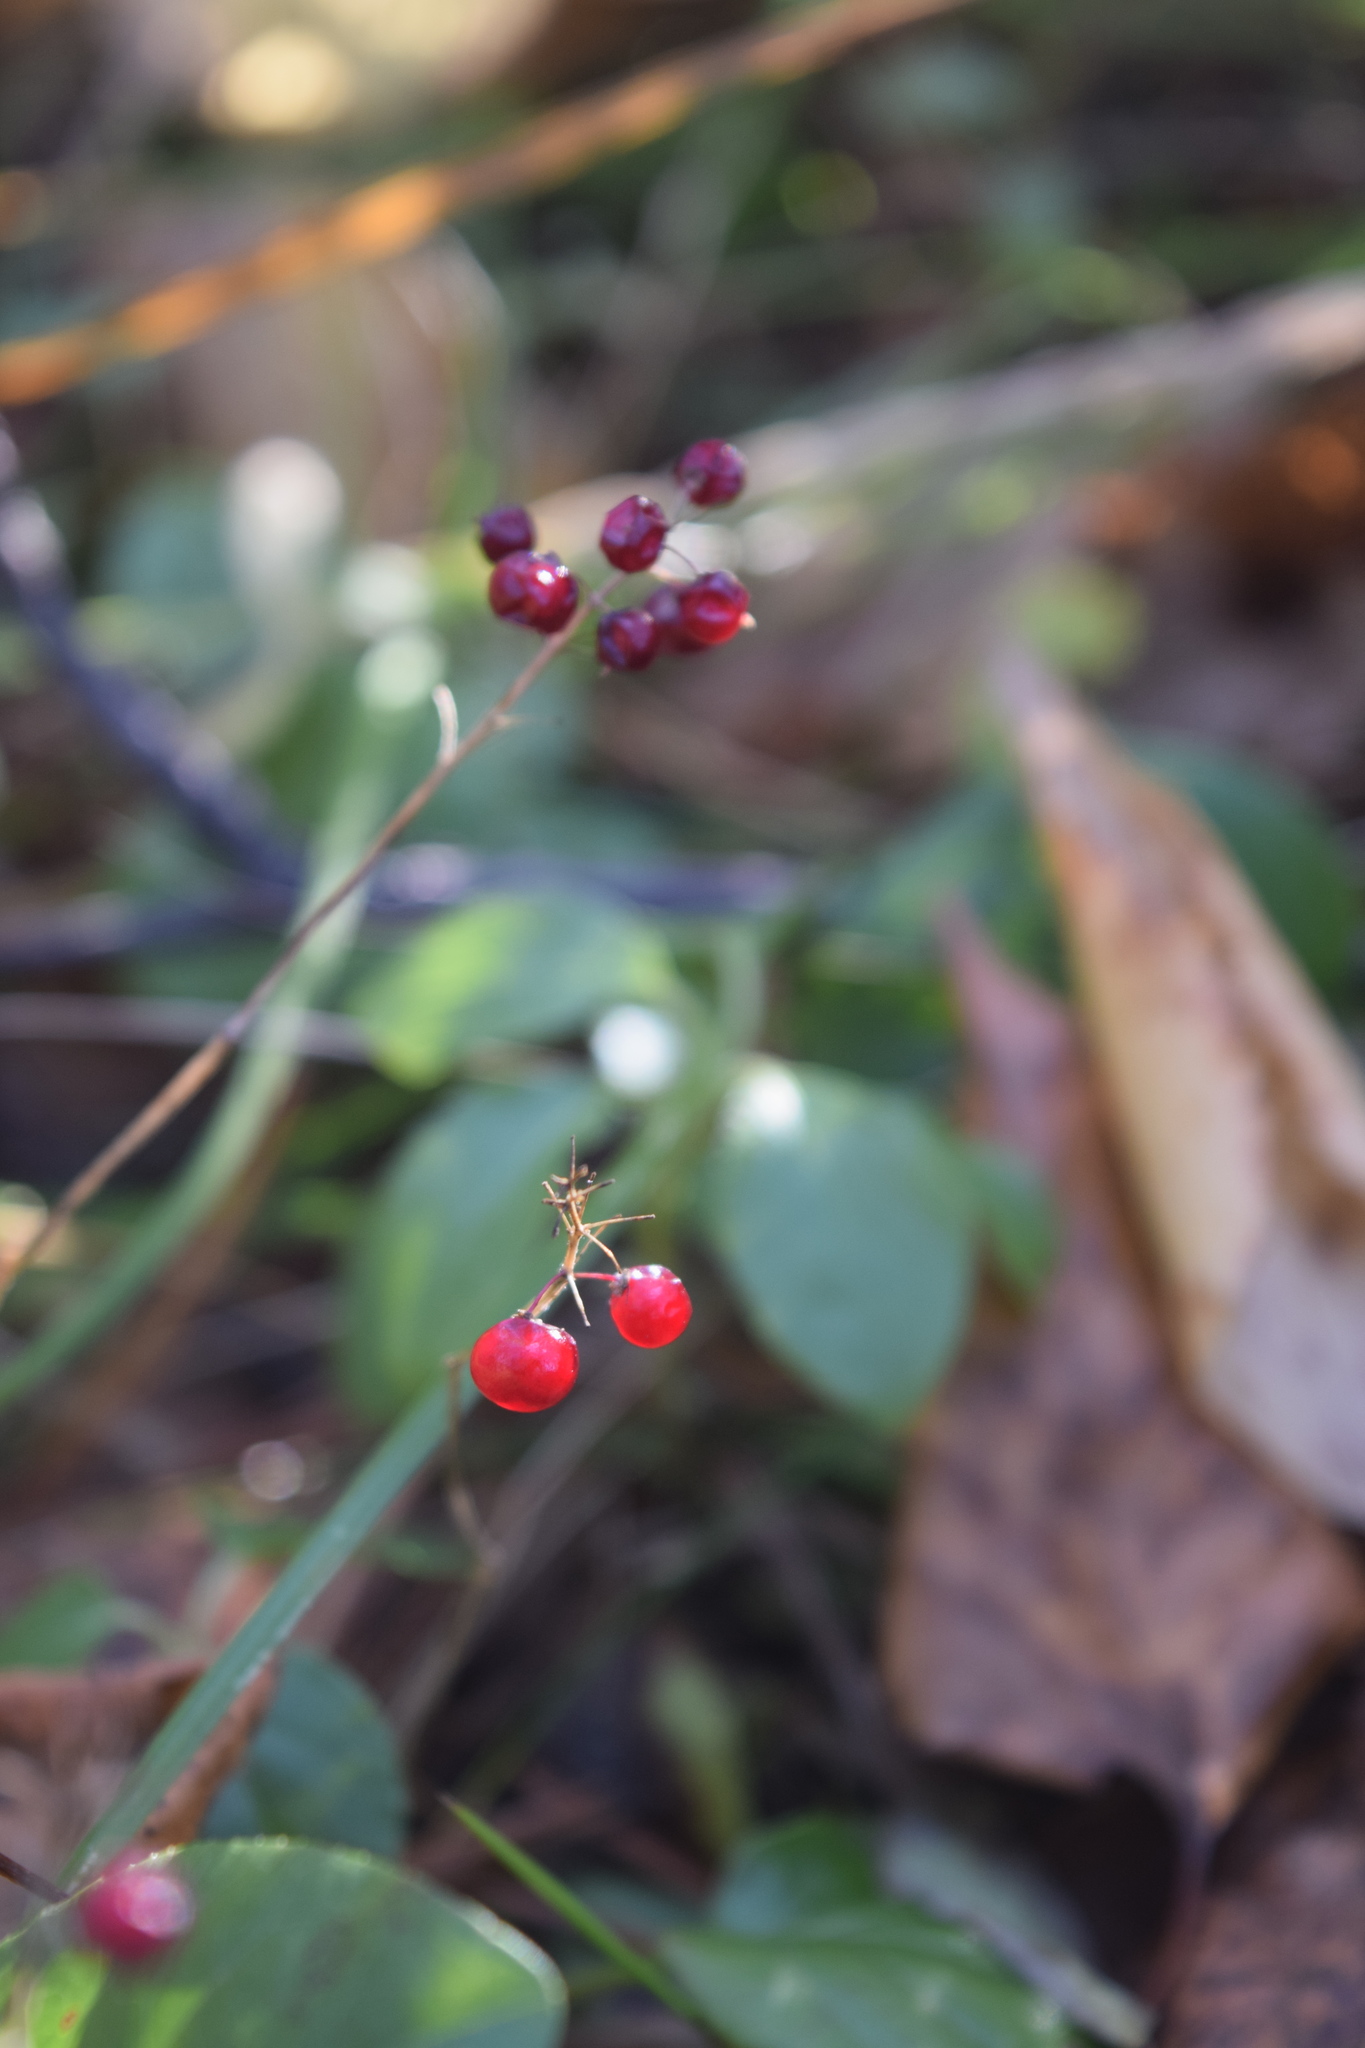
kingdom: Plantae
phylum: Tracheophyta
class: Liliopsida
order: Asparagales
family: Asparagaceae
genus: Maianthemum
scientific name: Maianthemum bifolium
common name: May lily
